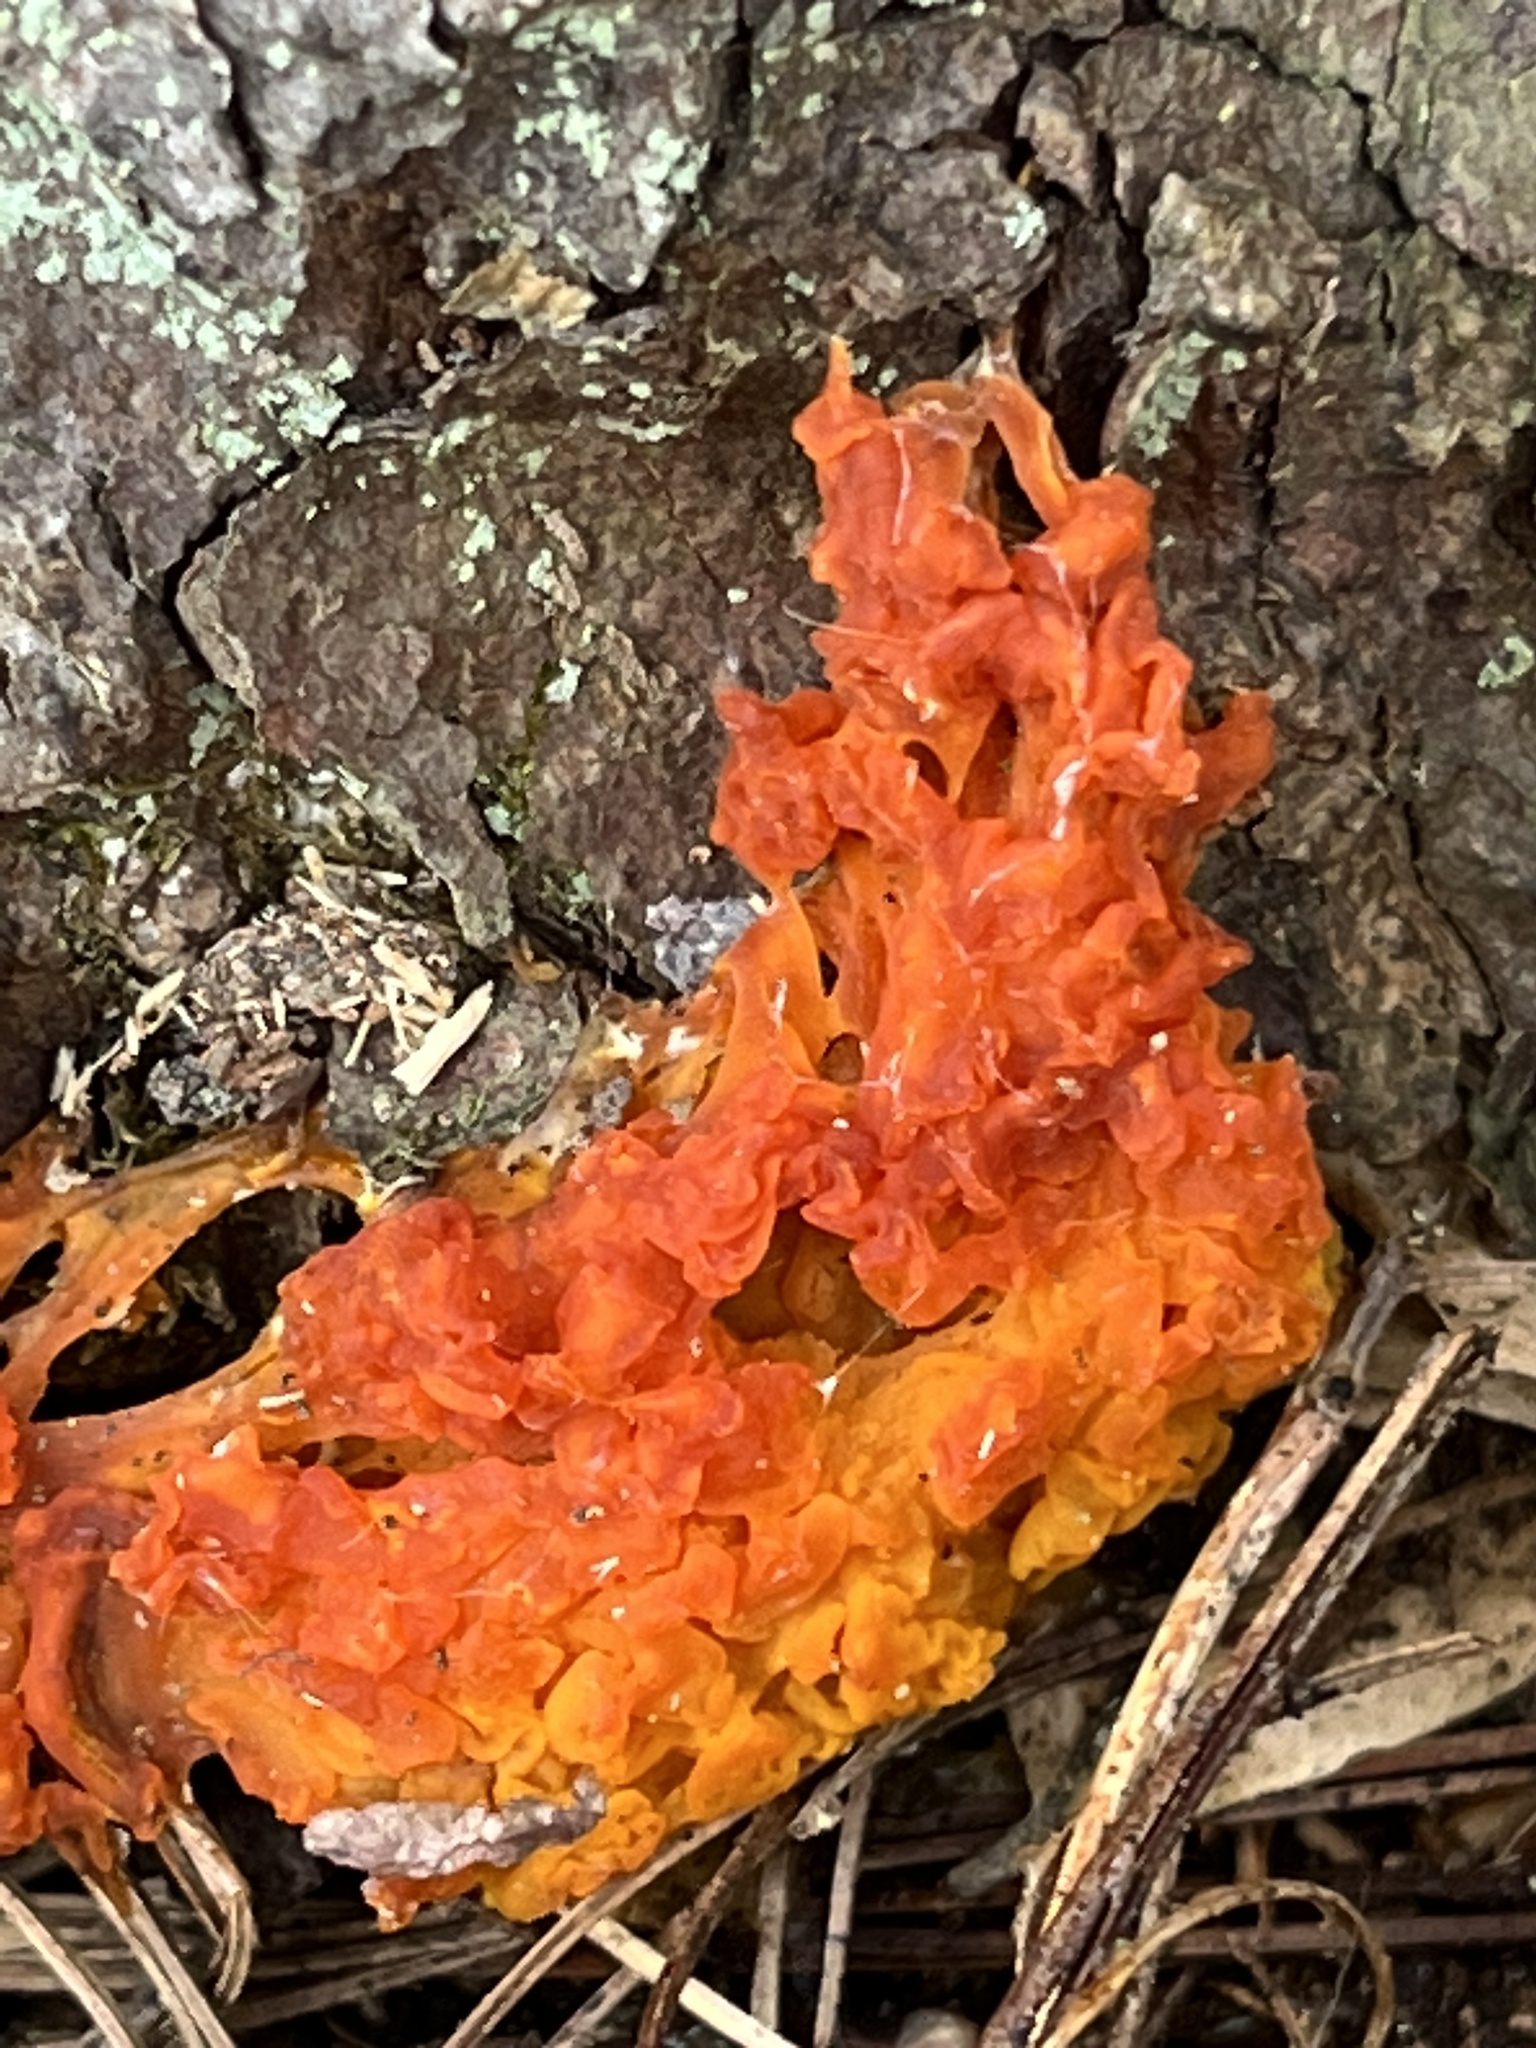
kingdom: Fungi
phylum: Basidiomycota
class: Dacrymycetes
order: Dacrymycetales
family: Dacrymycetaceae
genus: Dacrymyces
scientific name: Dacrymyces chrysospermus
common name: Orange jelly spot
